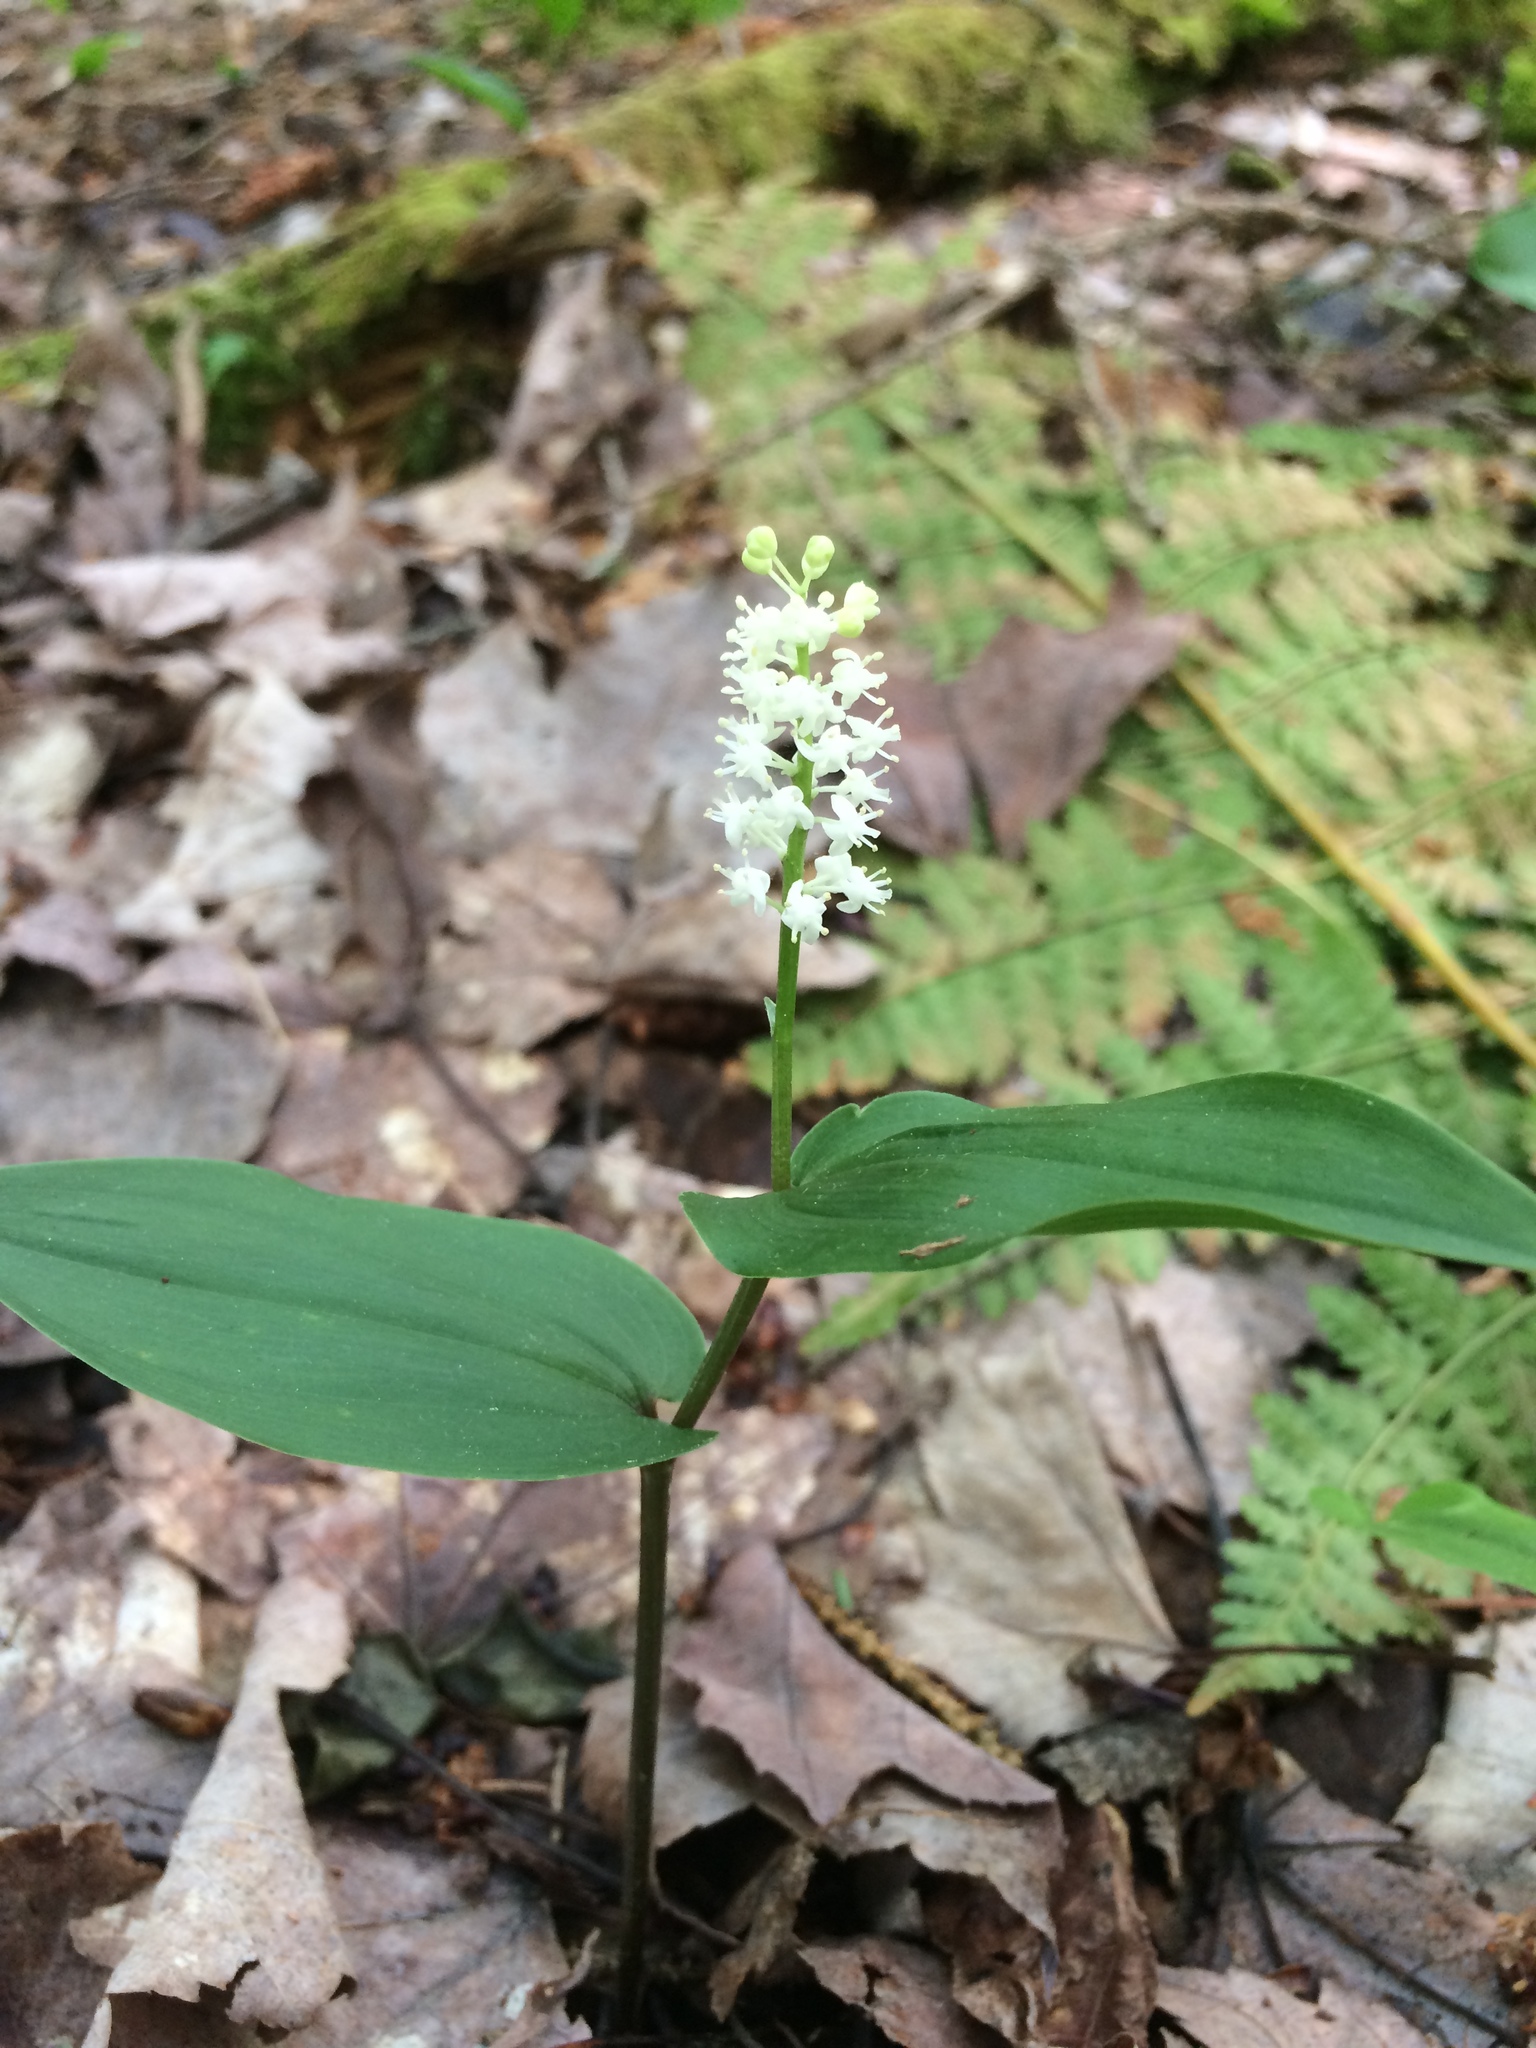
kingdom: Plantae
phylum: Tracheophyta
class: Liliopsida
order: Asparagales
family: Asparagaceae
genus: Maianthemum
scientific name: Maianthemum canadense
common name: False lily-of-the-valley
